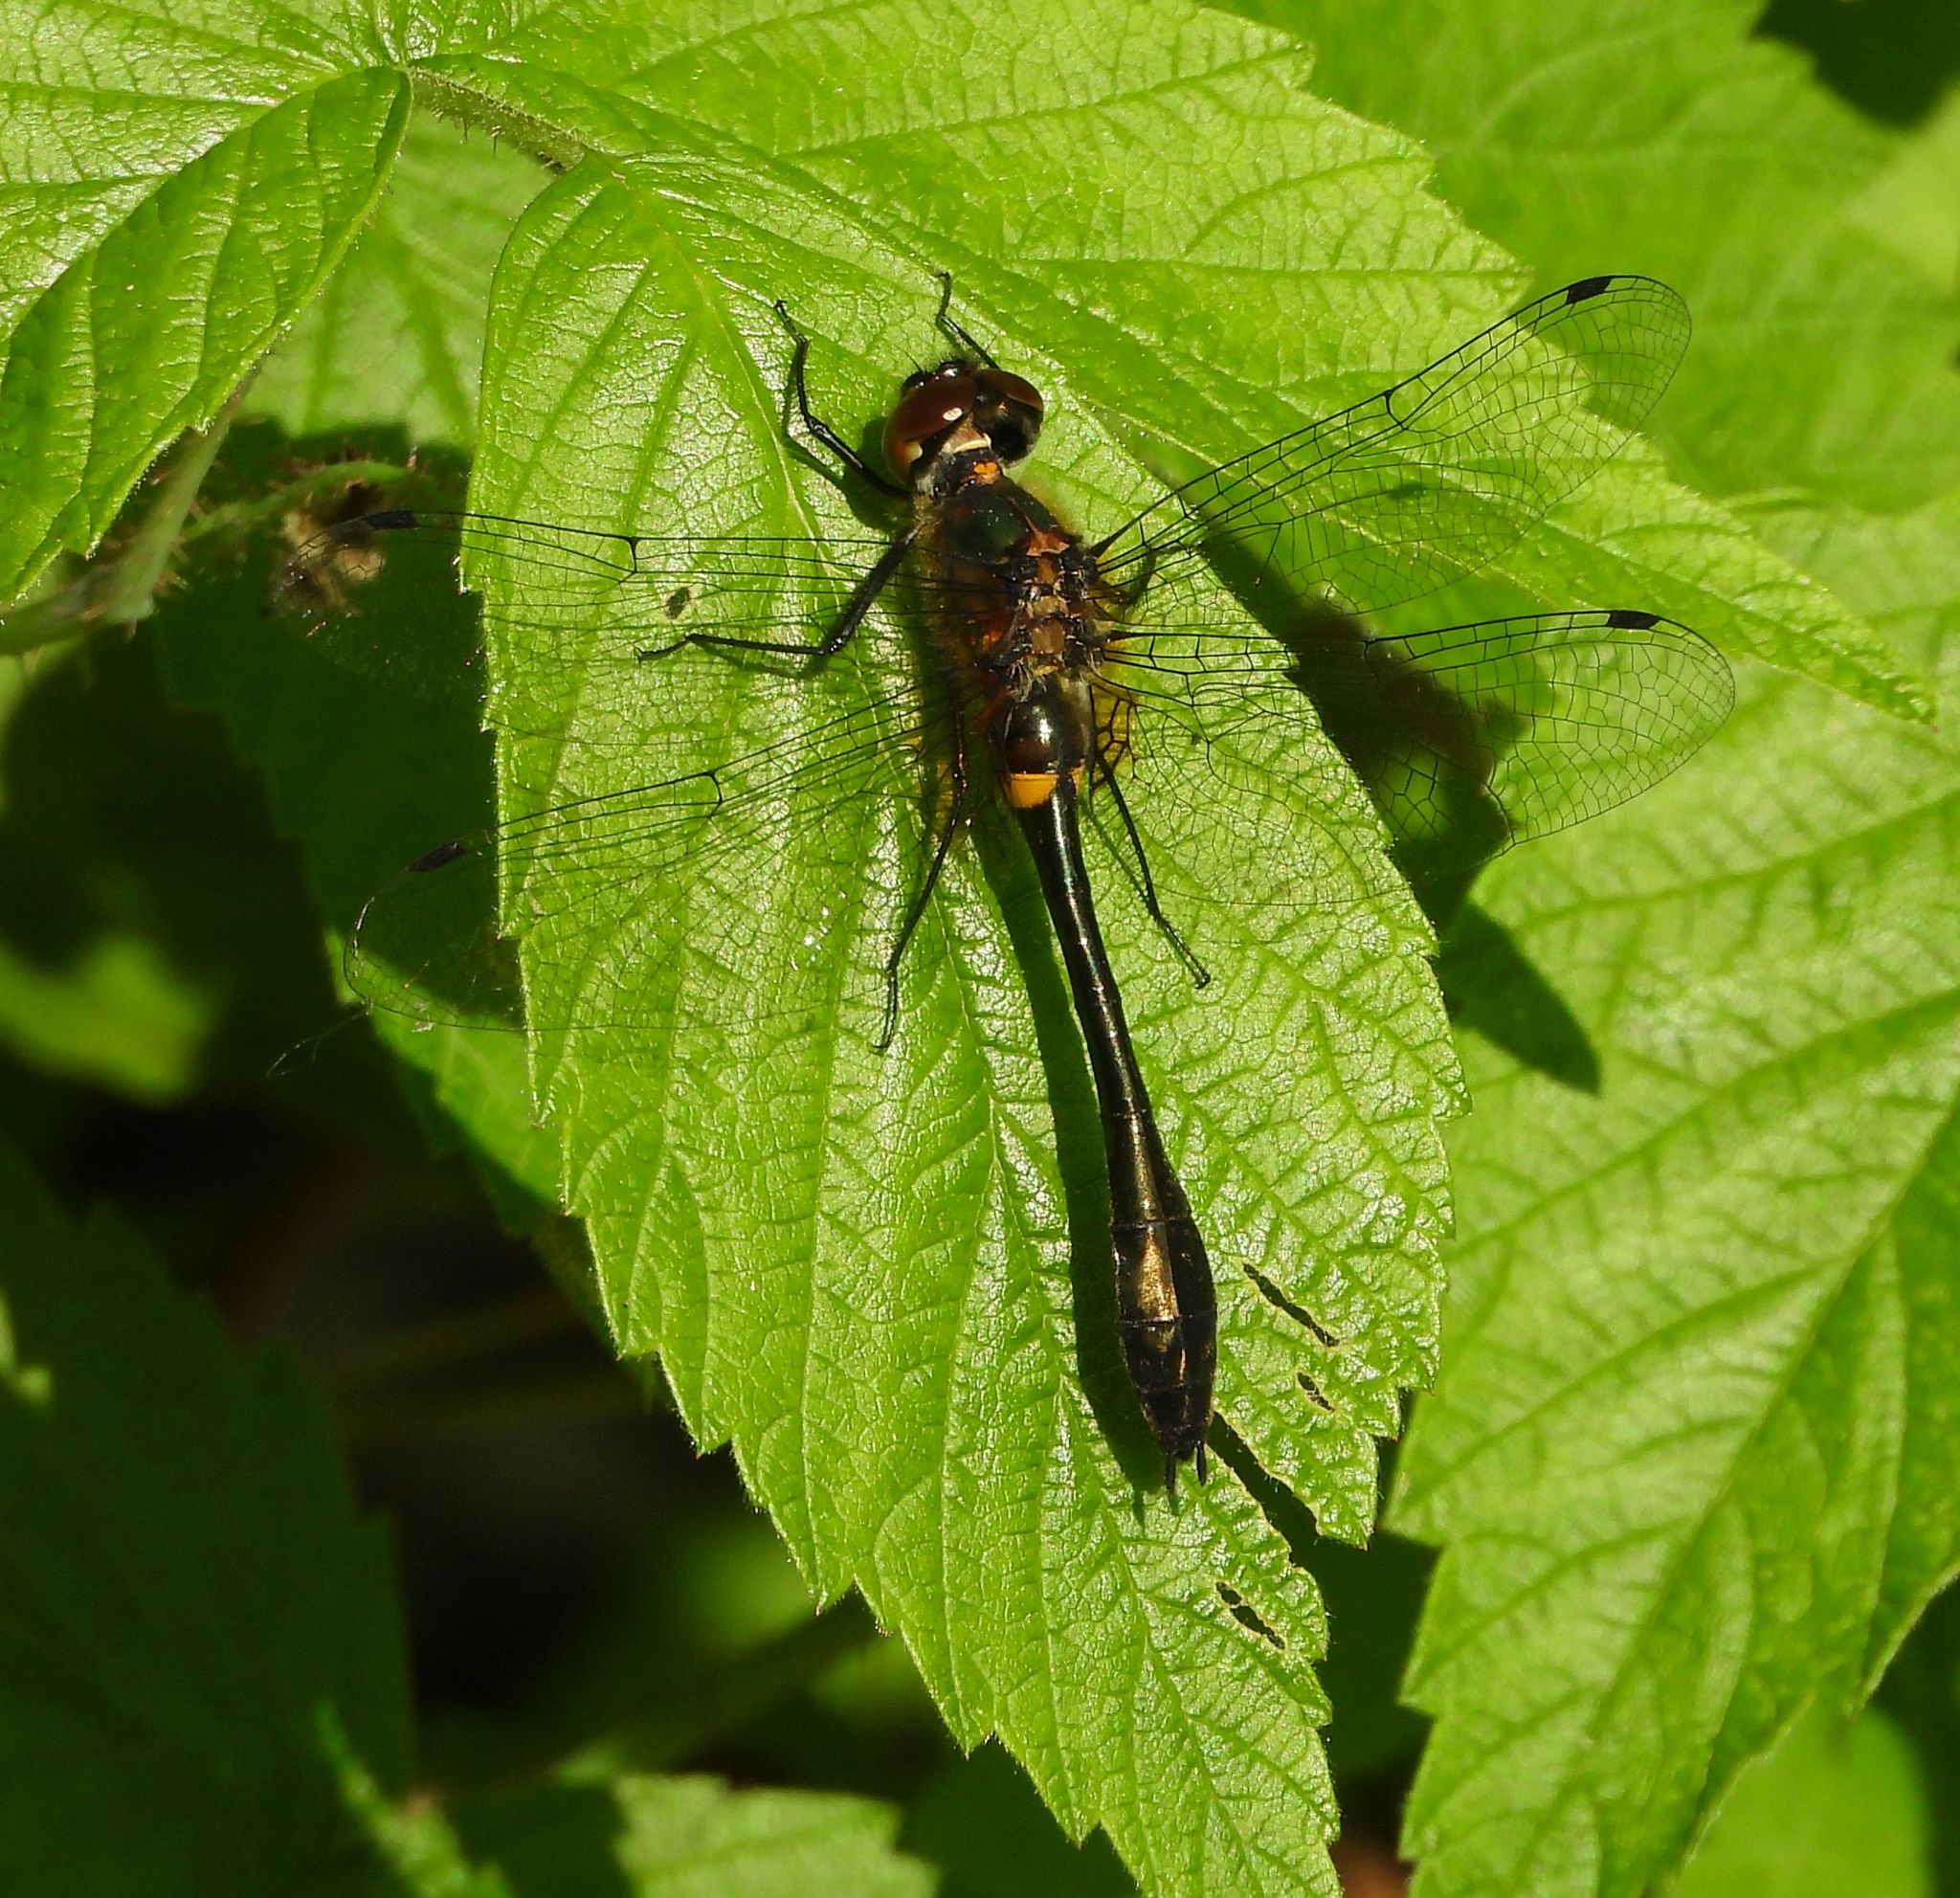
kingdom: Animalia
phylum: Arthropoda
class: Insecta
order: Odonata
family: Corduliidae
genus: Dorocordulia
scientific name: Dorocordulia libera
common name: Racket-tailed emerald
